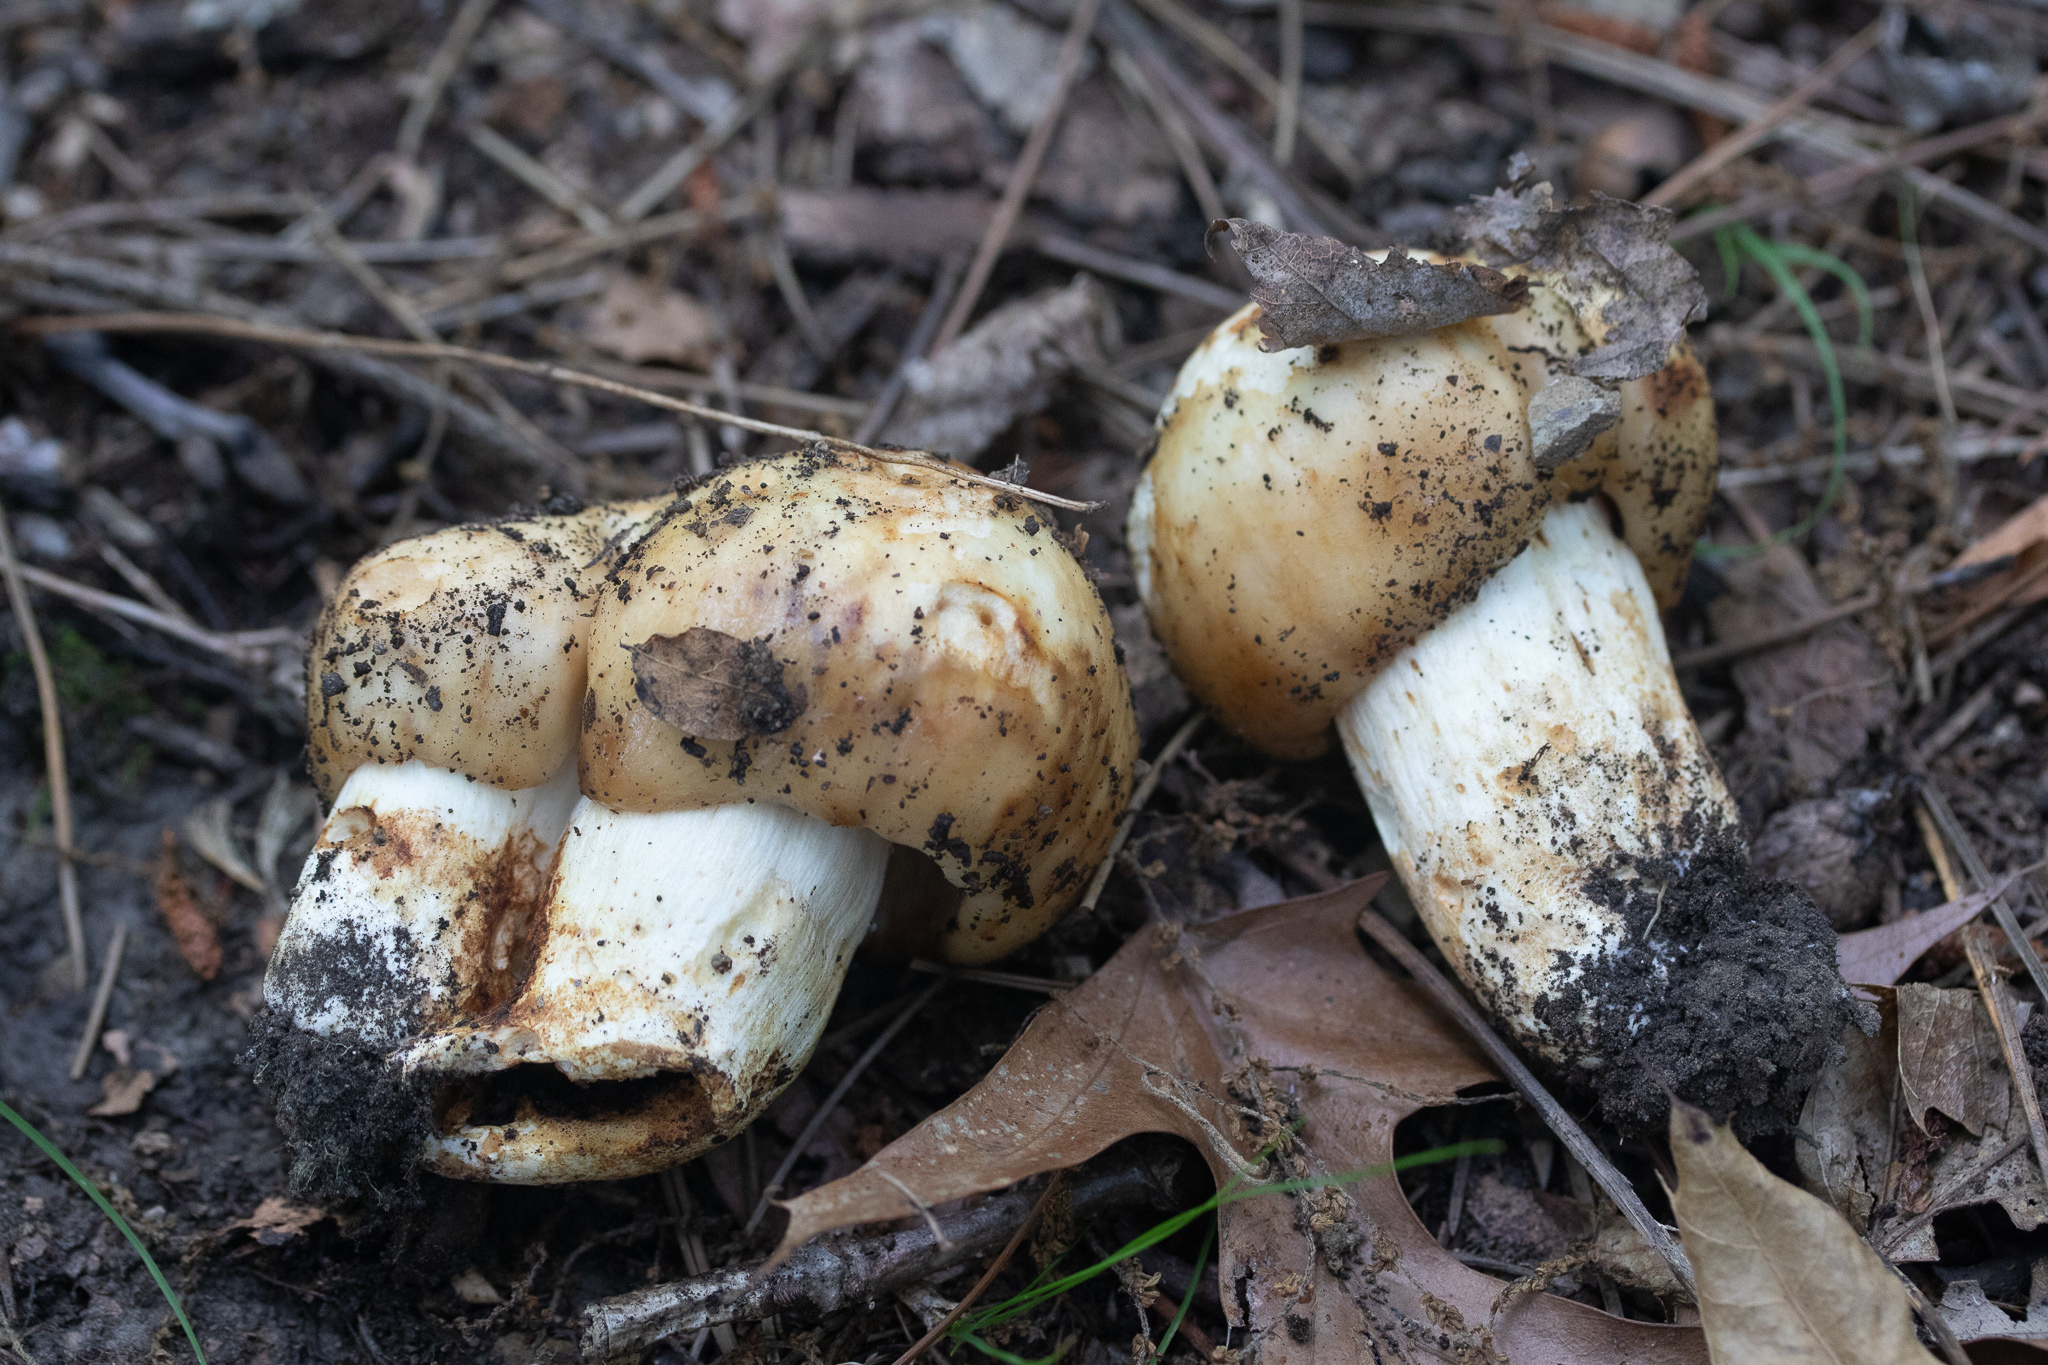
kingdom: Fungi
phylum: Basidiomycota
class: Agaricomycetes
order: Russulales
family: Russulaceae
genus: Russula
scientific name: Russula grata
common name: Bitter almond brittlegill
